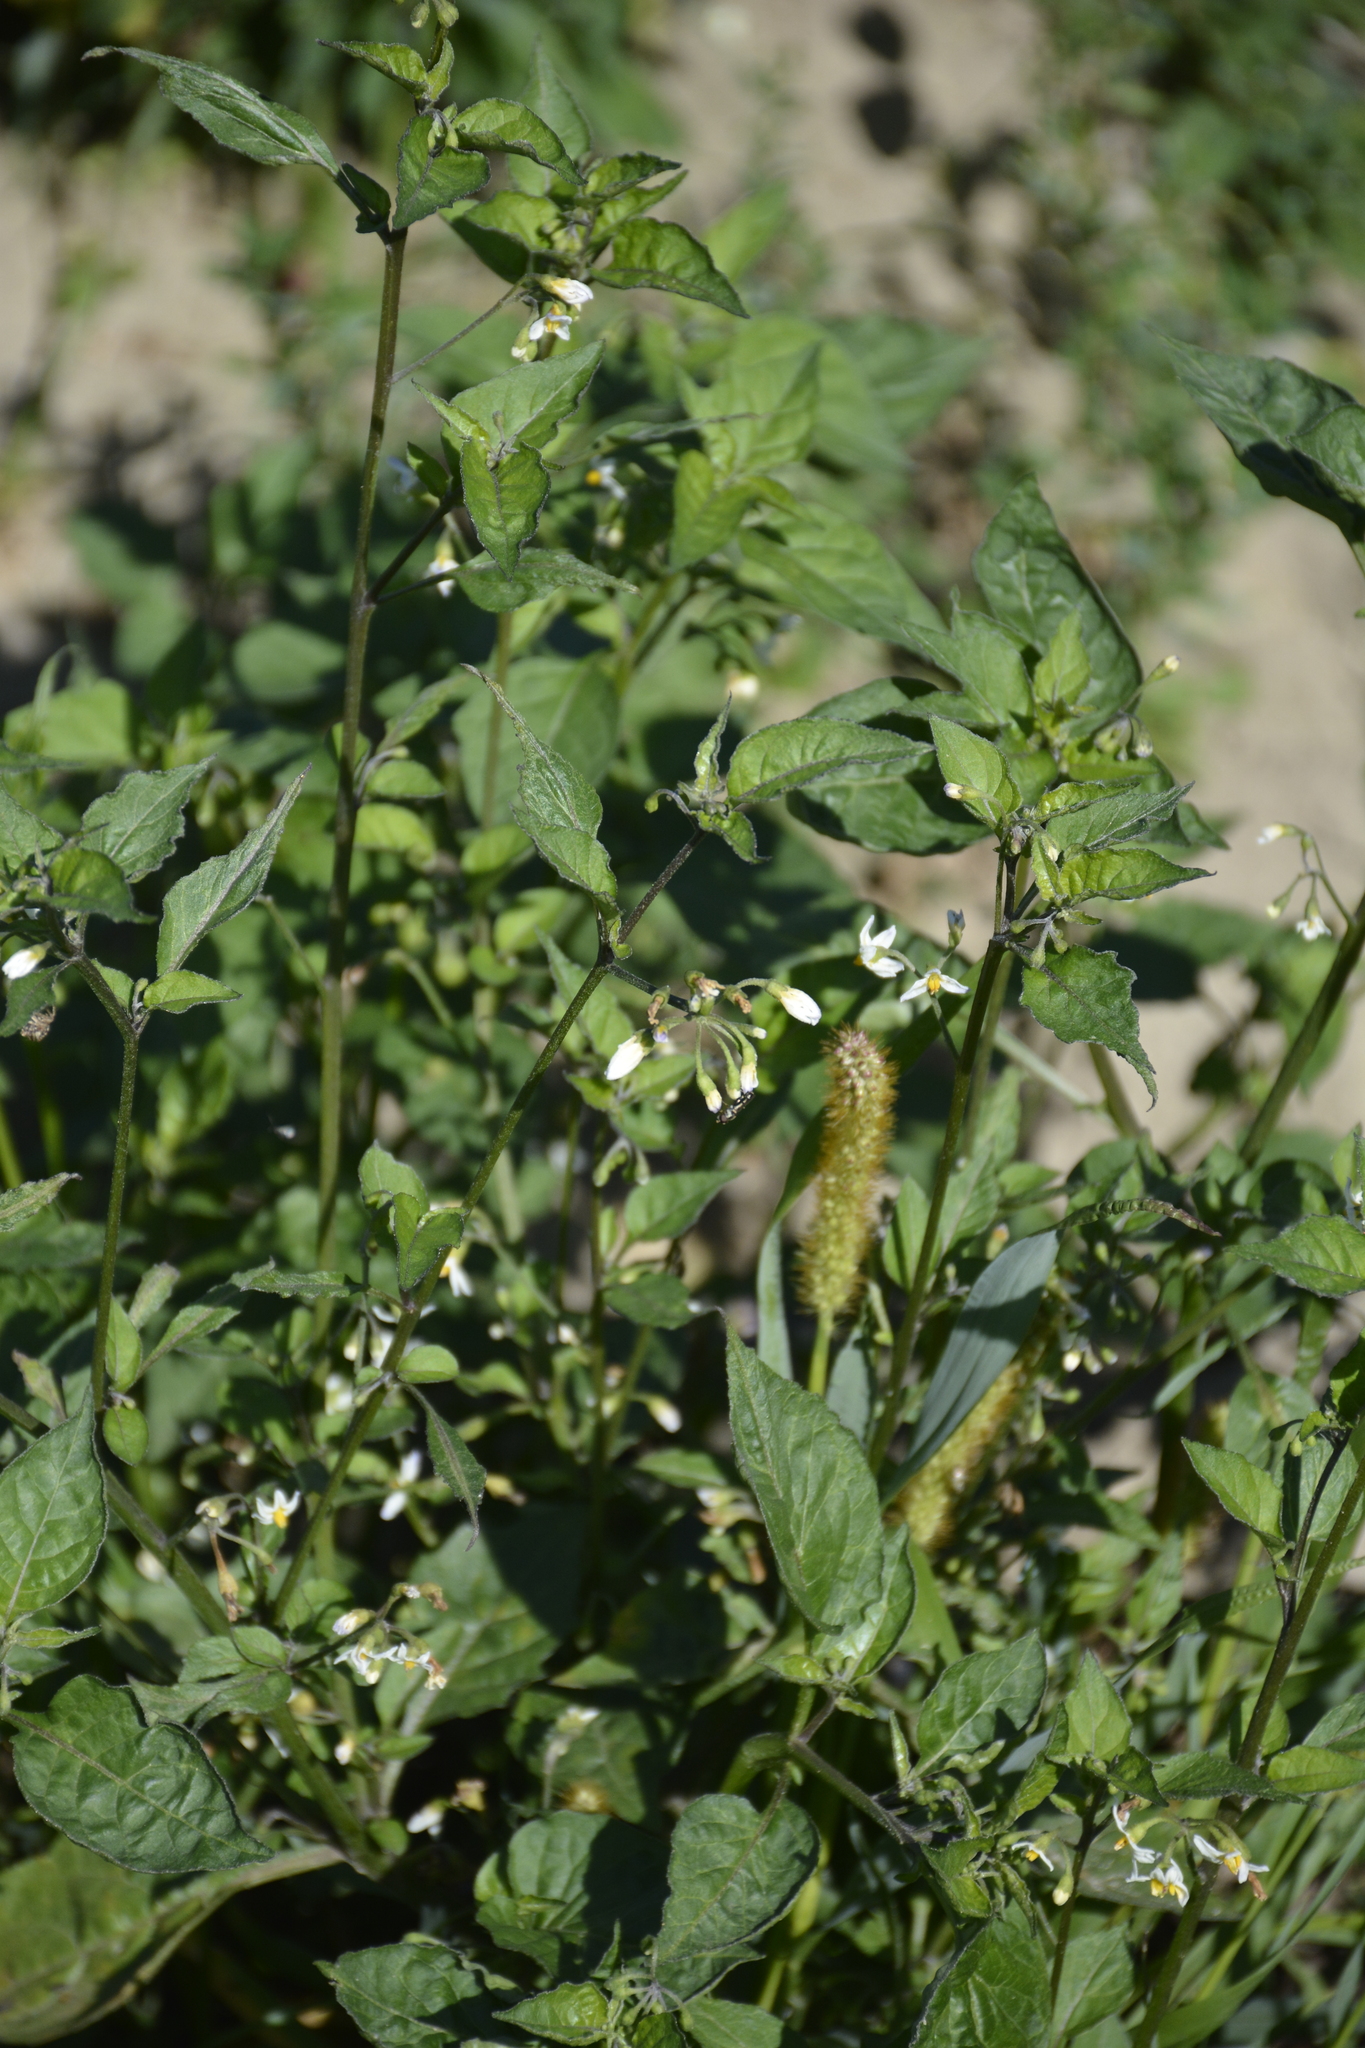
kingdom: Plantae
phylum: Tracheophyta
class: Magnoliopsida
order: Solanales
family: Solanaceae
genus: Solanum
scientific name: Solanum nigrum
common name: Black nightshade
